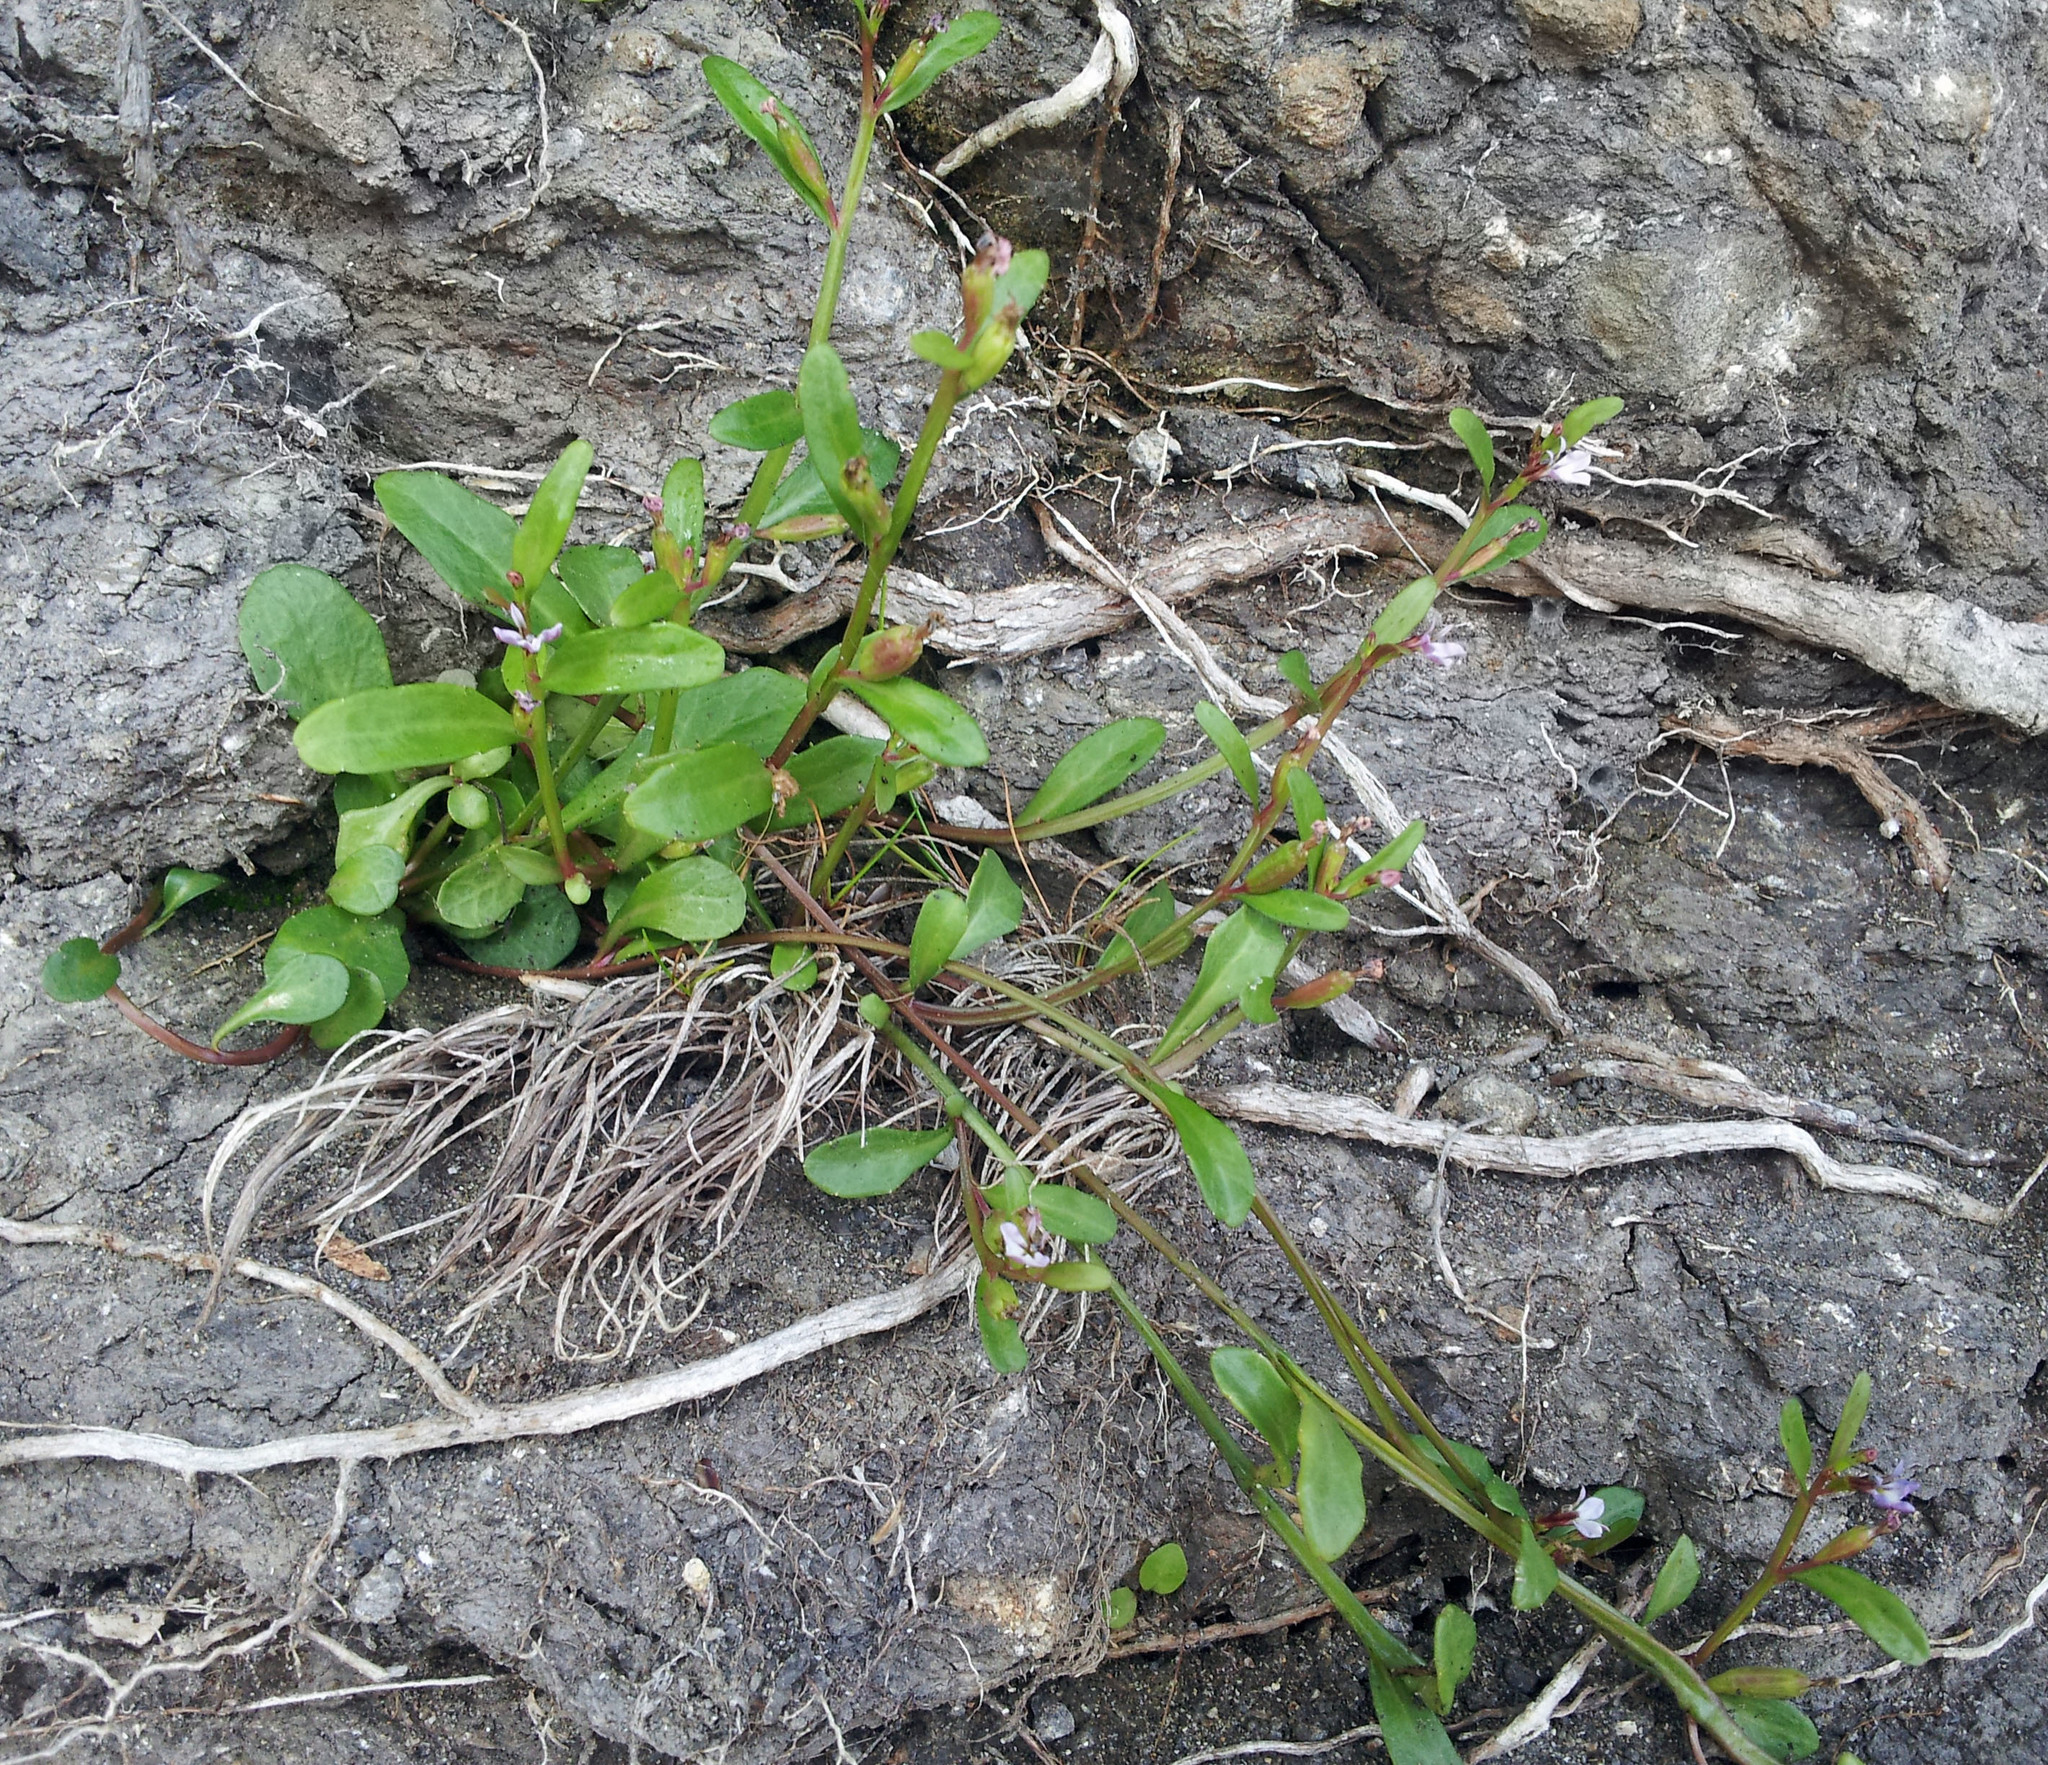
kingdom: Plantae
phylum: Tracheophyta
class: Magnoliopsida
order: Asterales
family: Campanulaceae
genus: Lobelia
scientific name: Lobelia anceps
